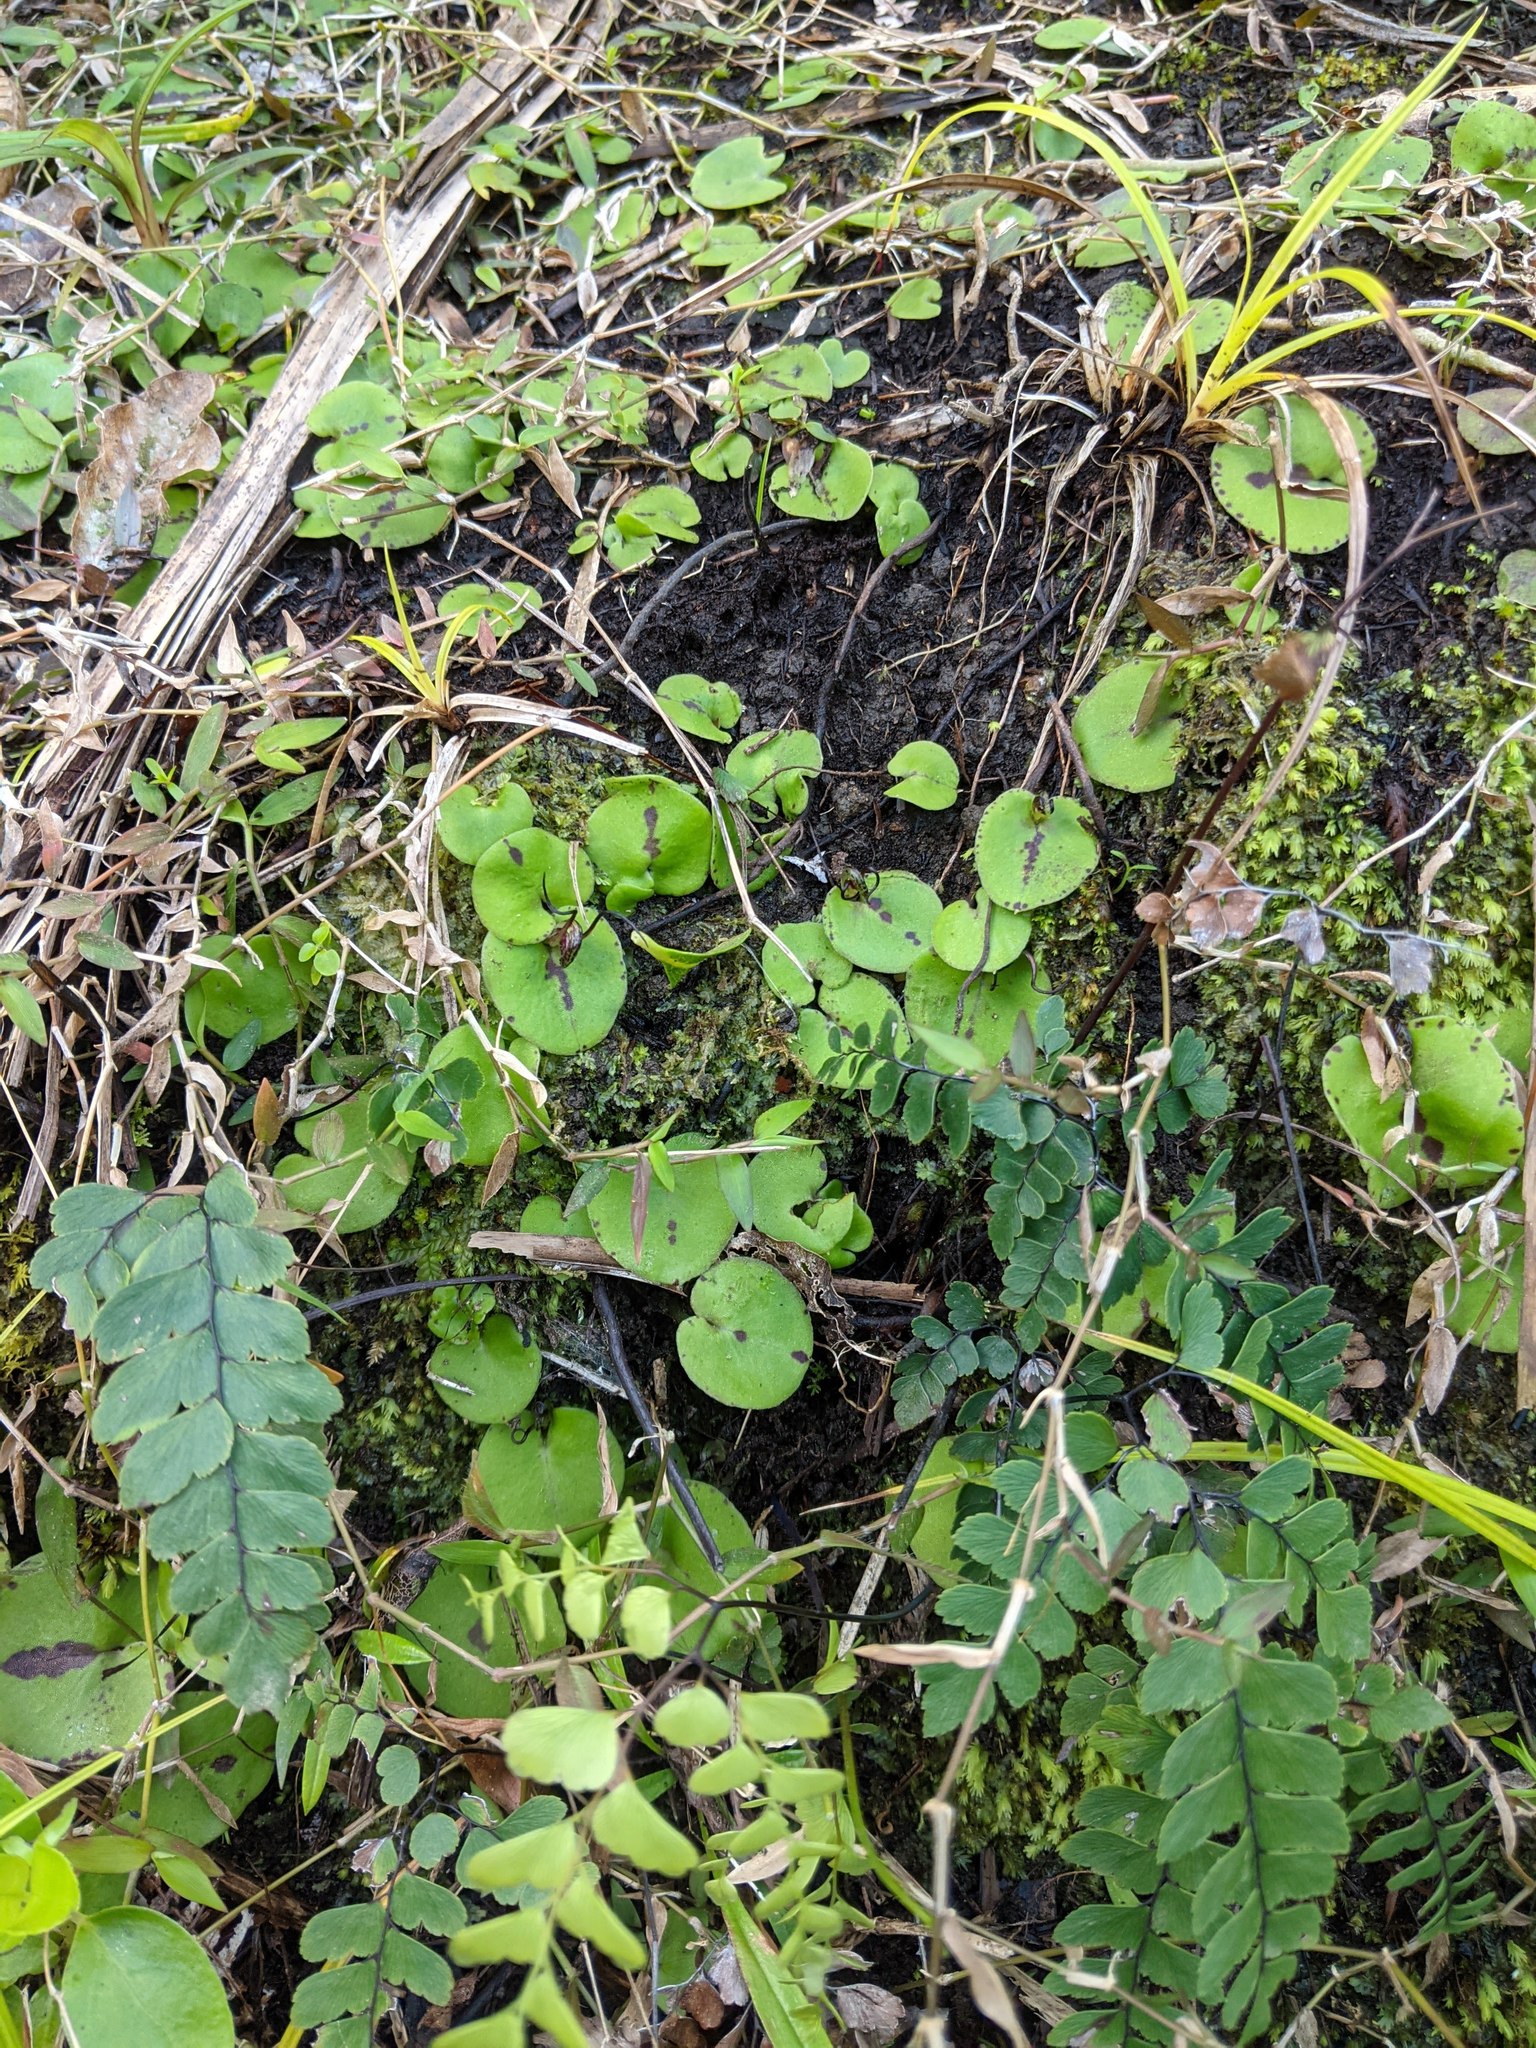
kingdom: Plantae
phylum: Tracheophyta
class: Liliopsida
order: Asparagales
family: Orchidaceae
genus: Corybas
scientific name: Corybas macranthus
